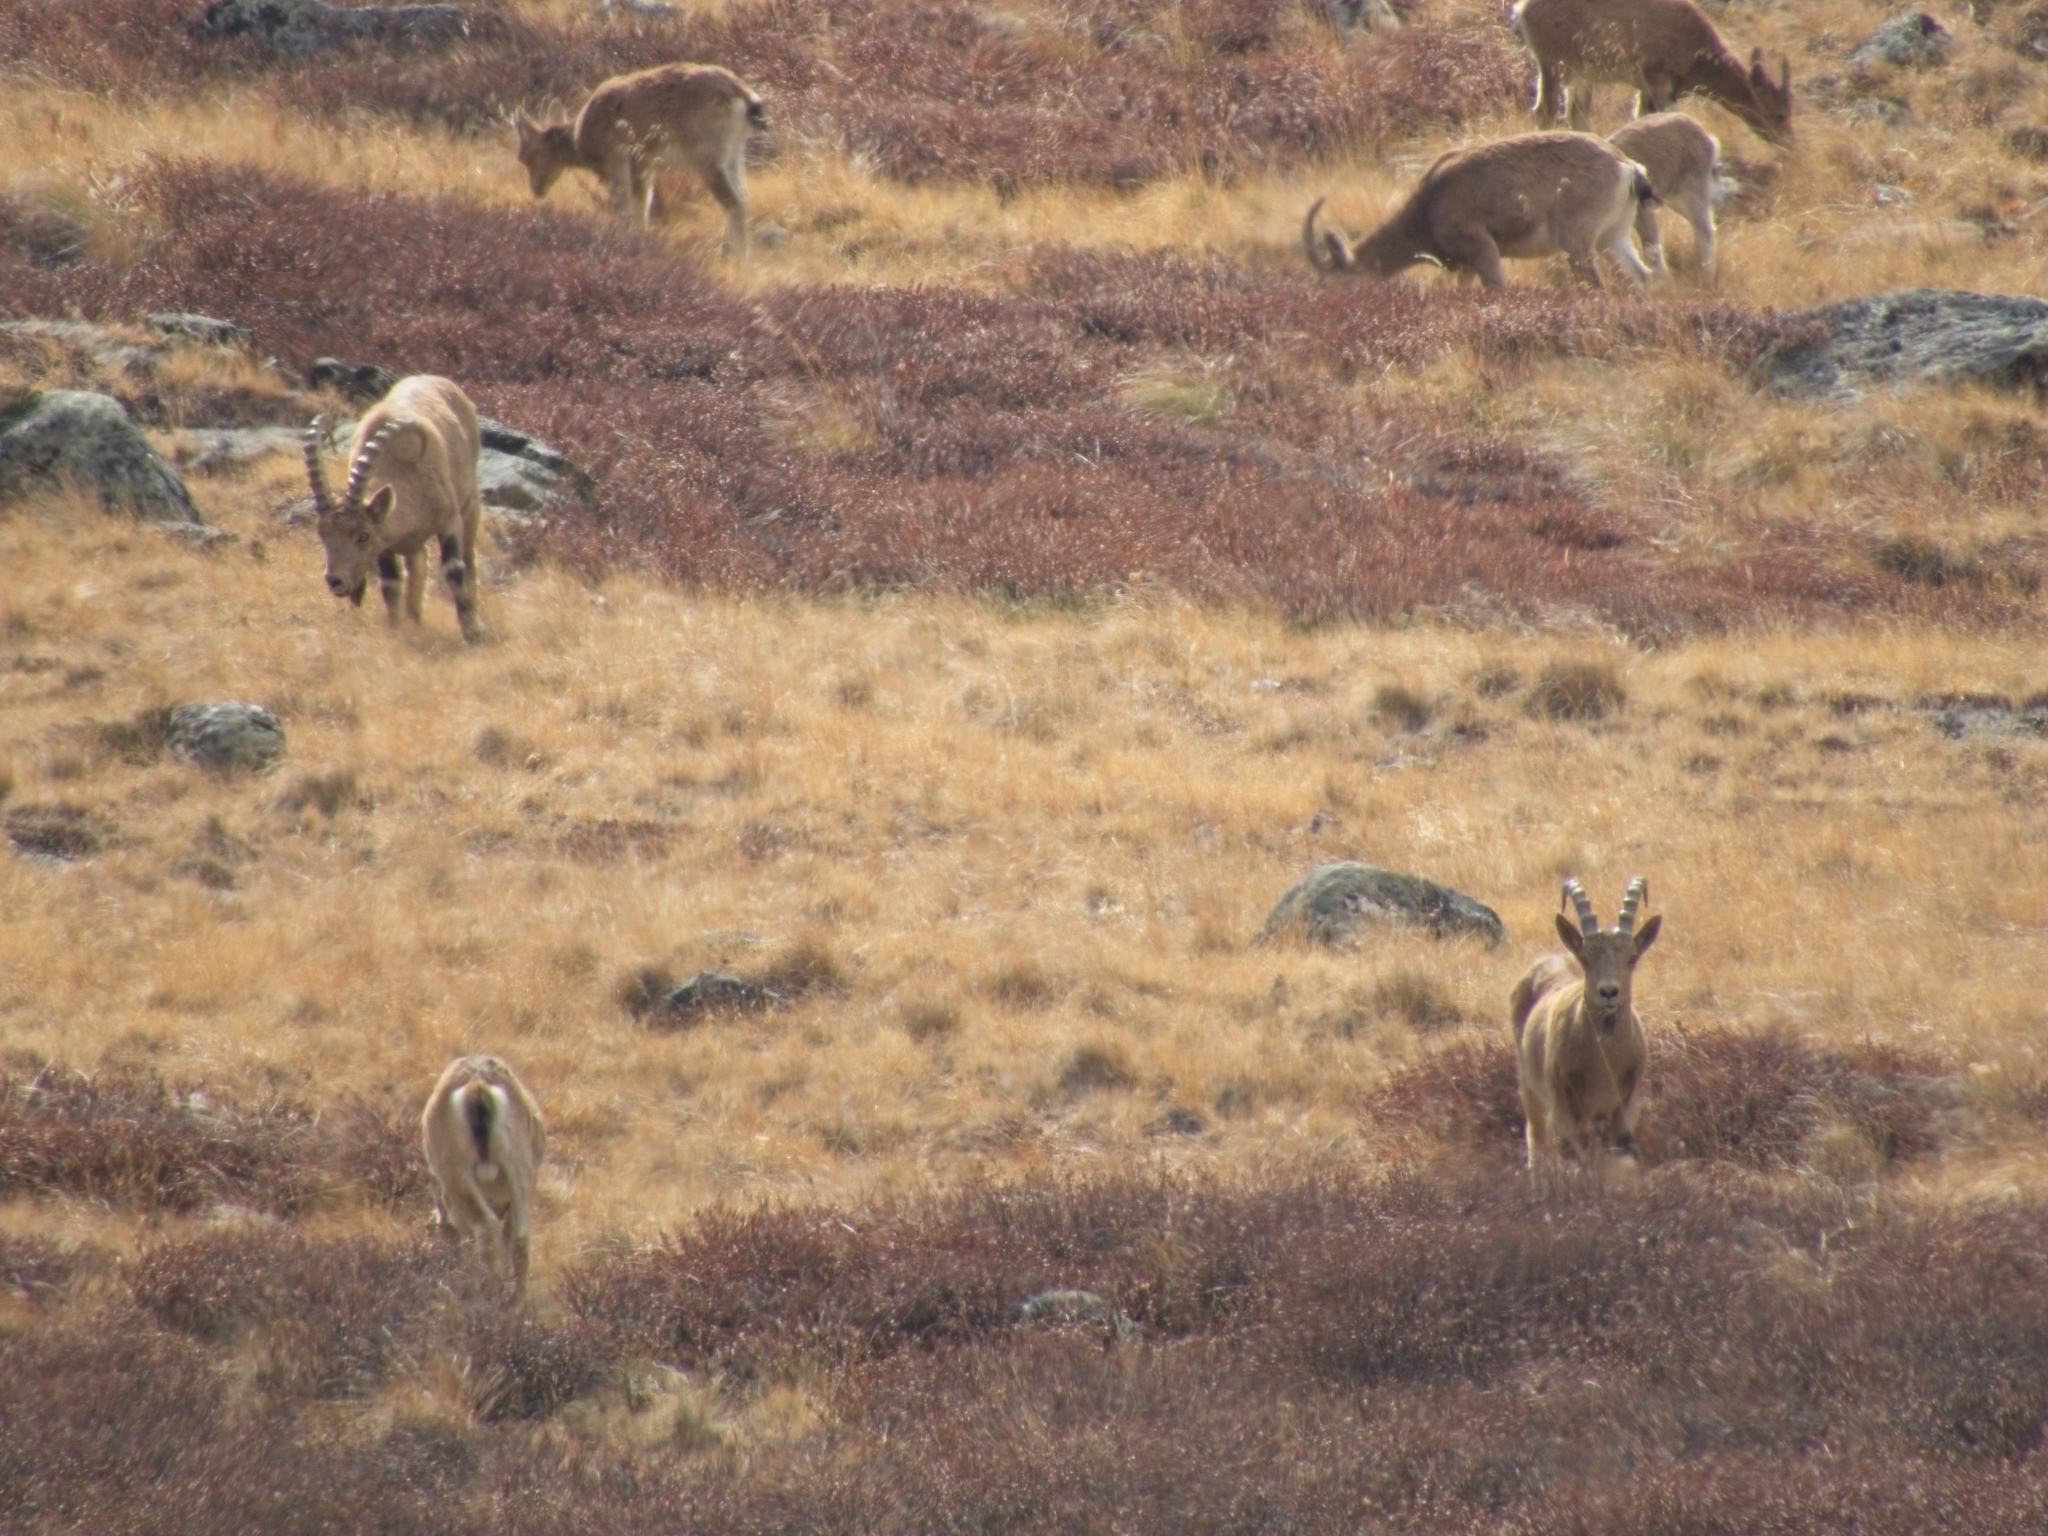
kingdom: Animalia
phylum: Chordata
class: Mammalia
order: Artiodactyla
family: Bovidae
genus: Capra
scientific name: Capra sibirica
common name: Siberian ibex
